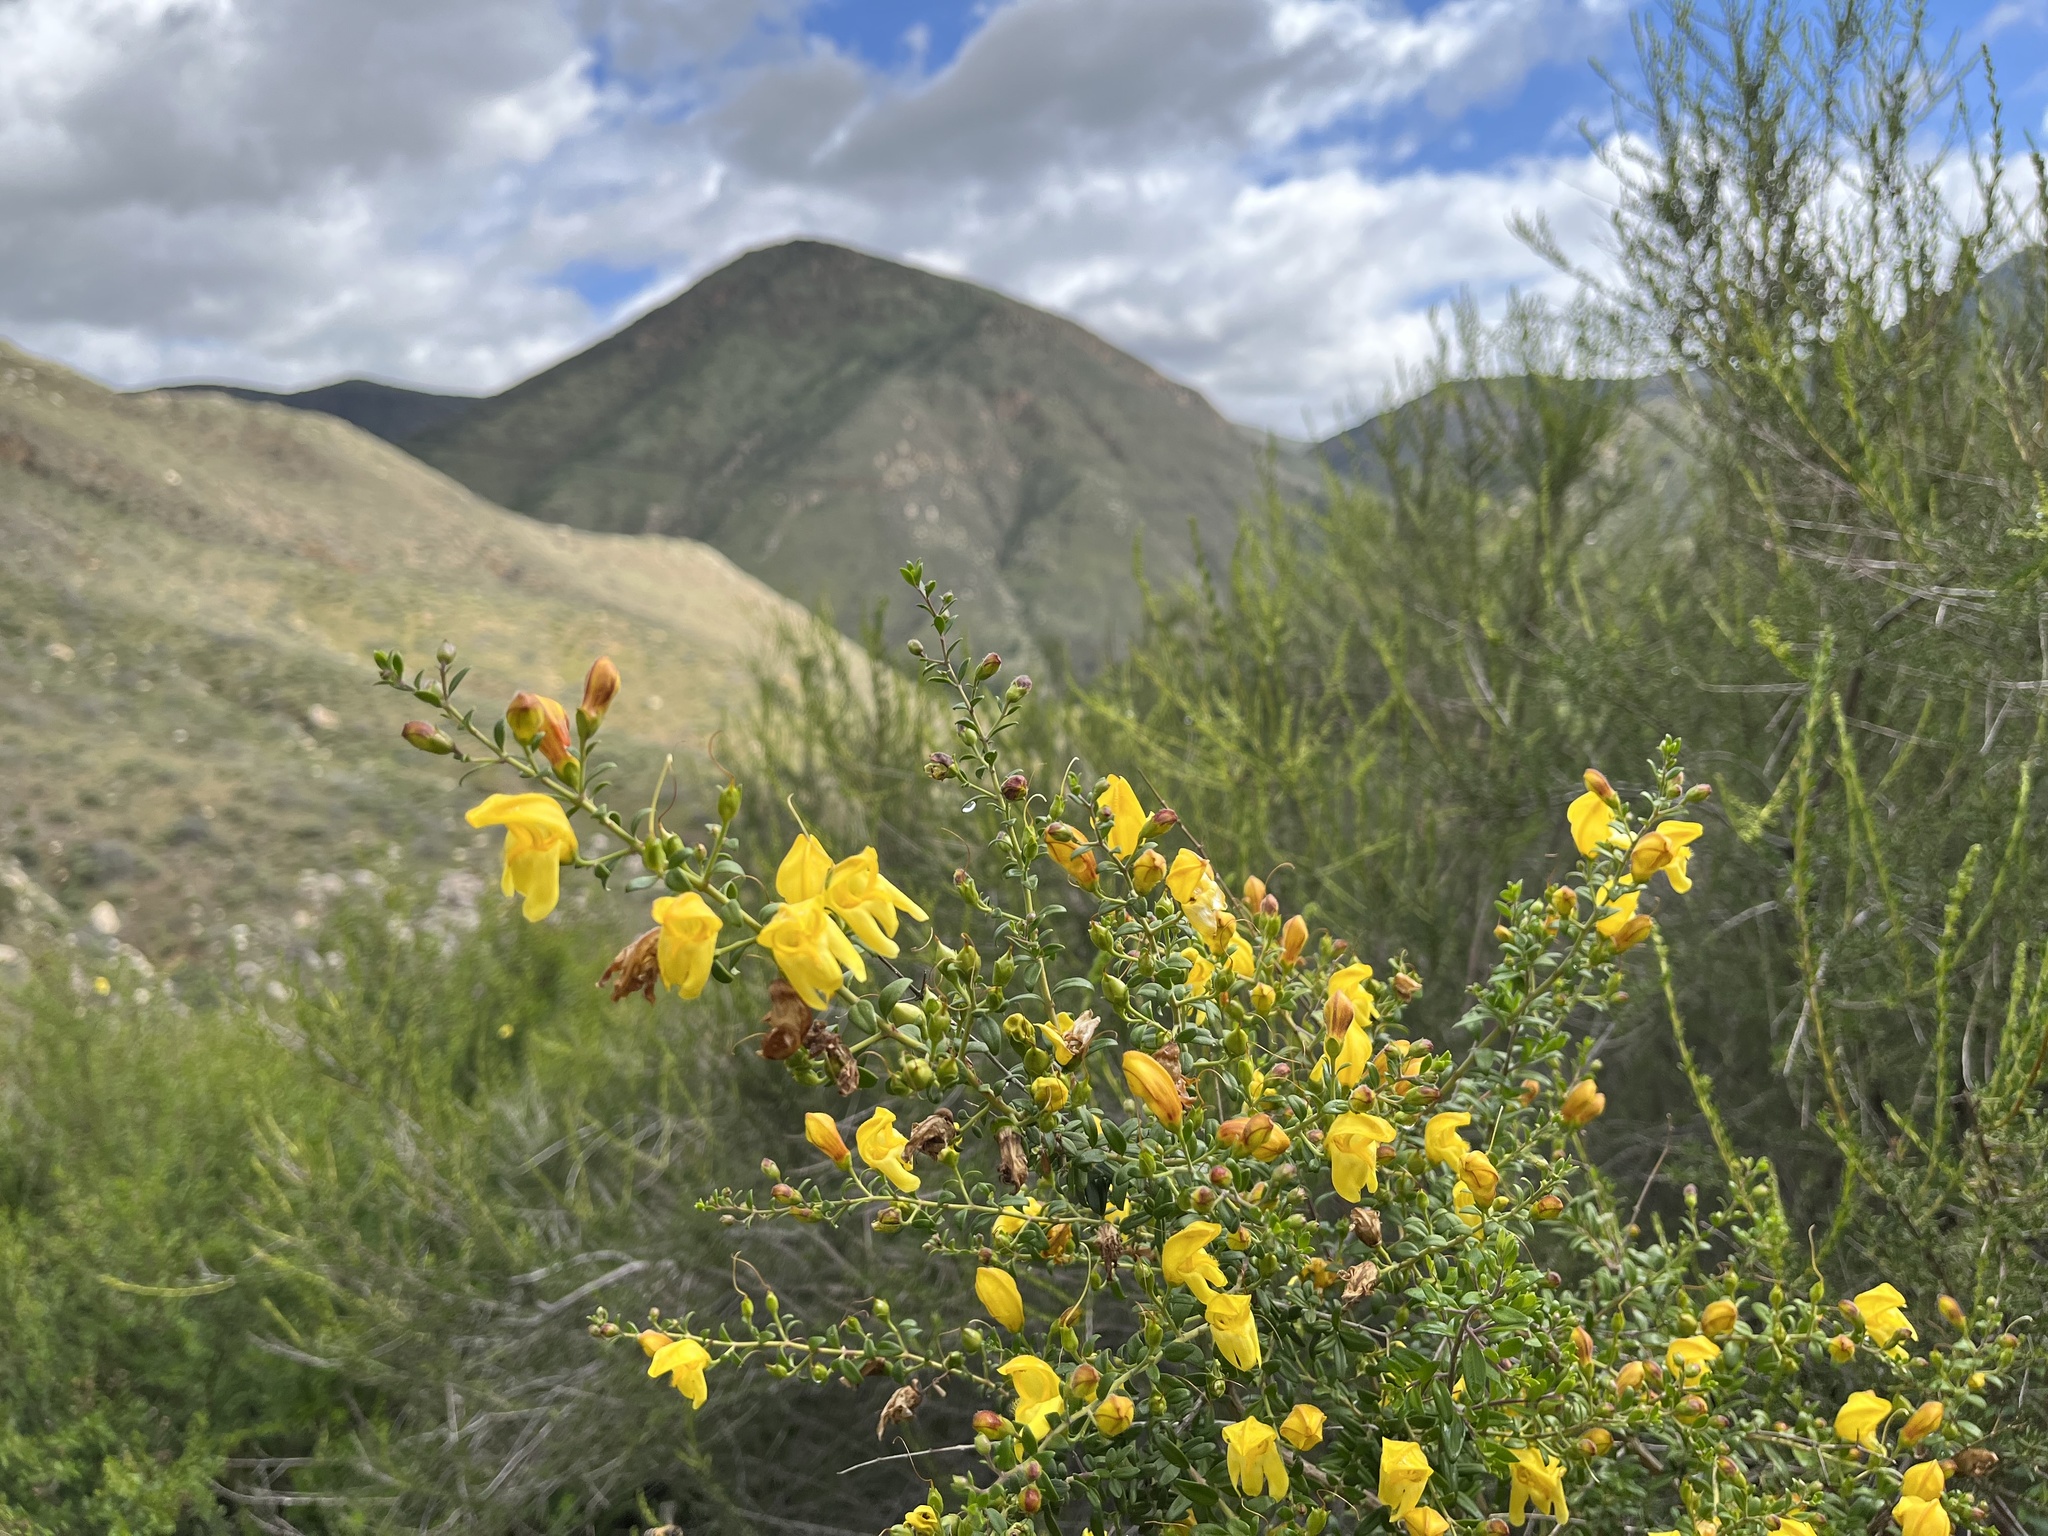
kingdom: Plantae
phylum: Tracheophyta
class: Magnoliopsida
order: Lamiales
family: Plantaginaceae
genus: Keckiella
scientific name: Keckiella antirrhinoides
